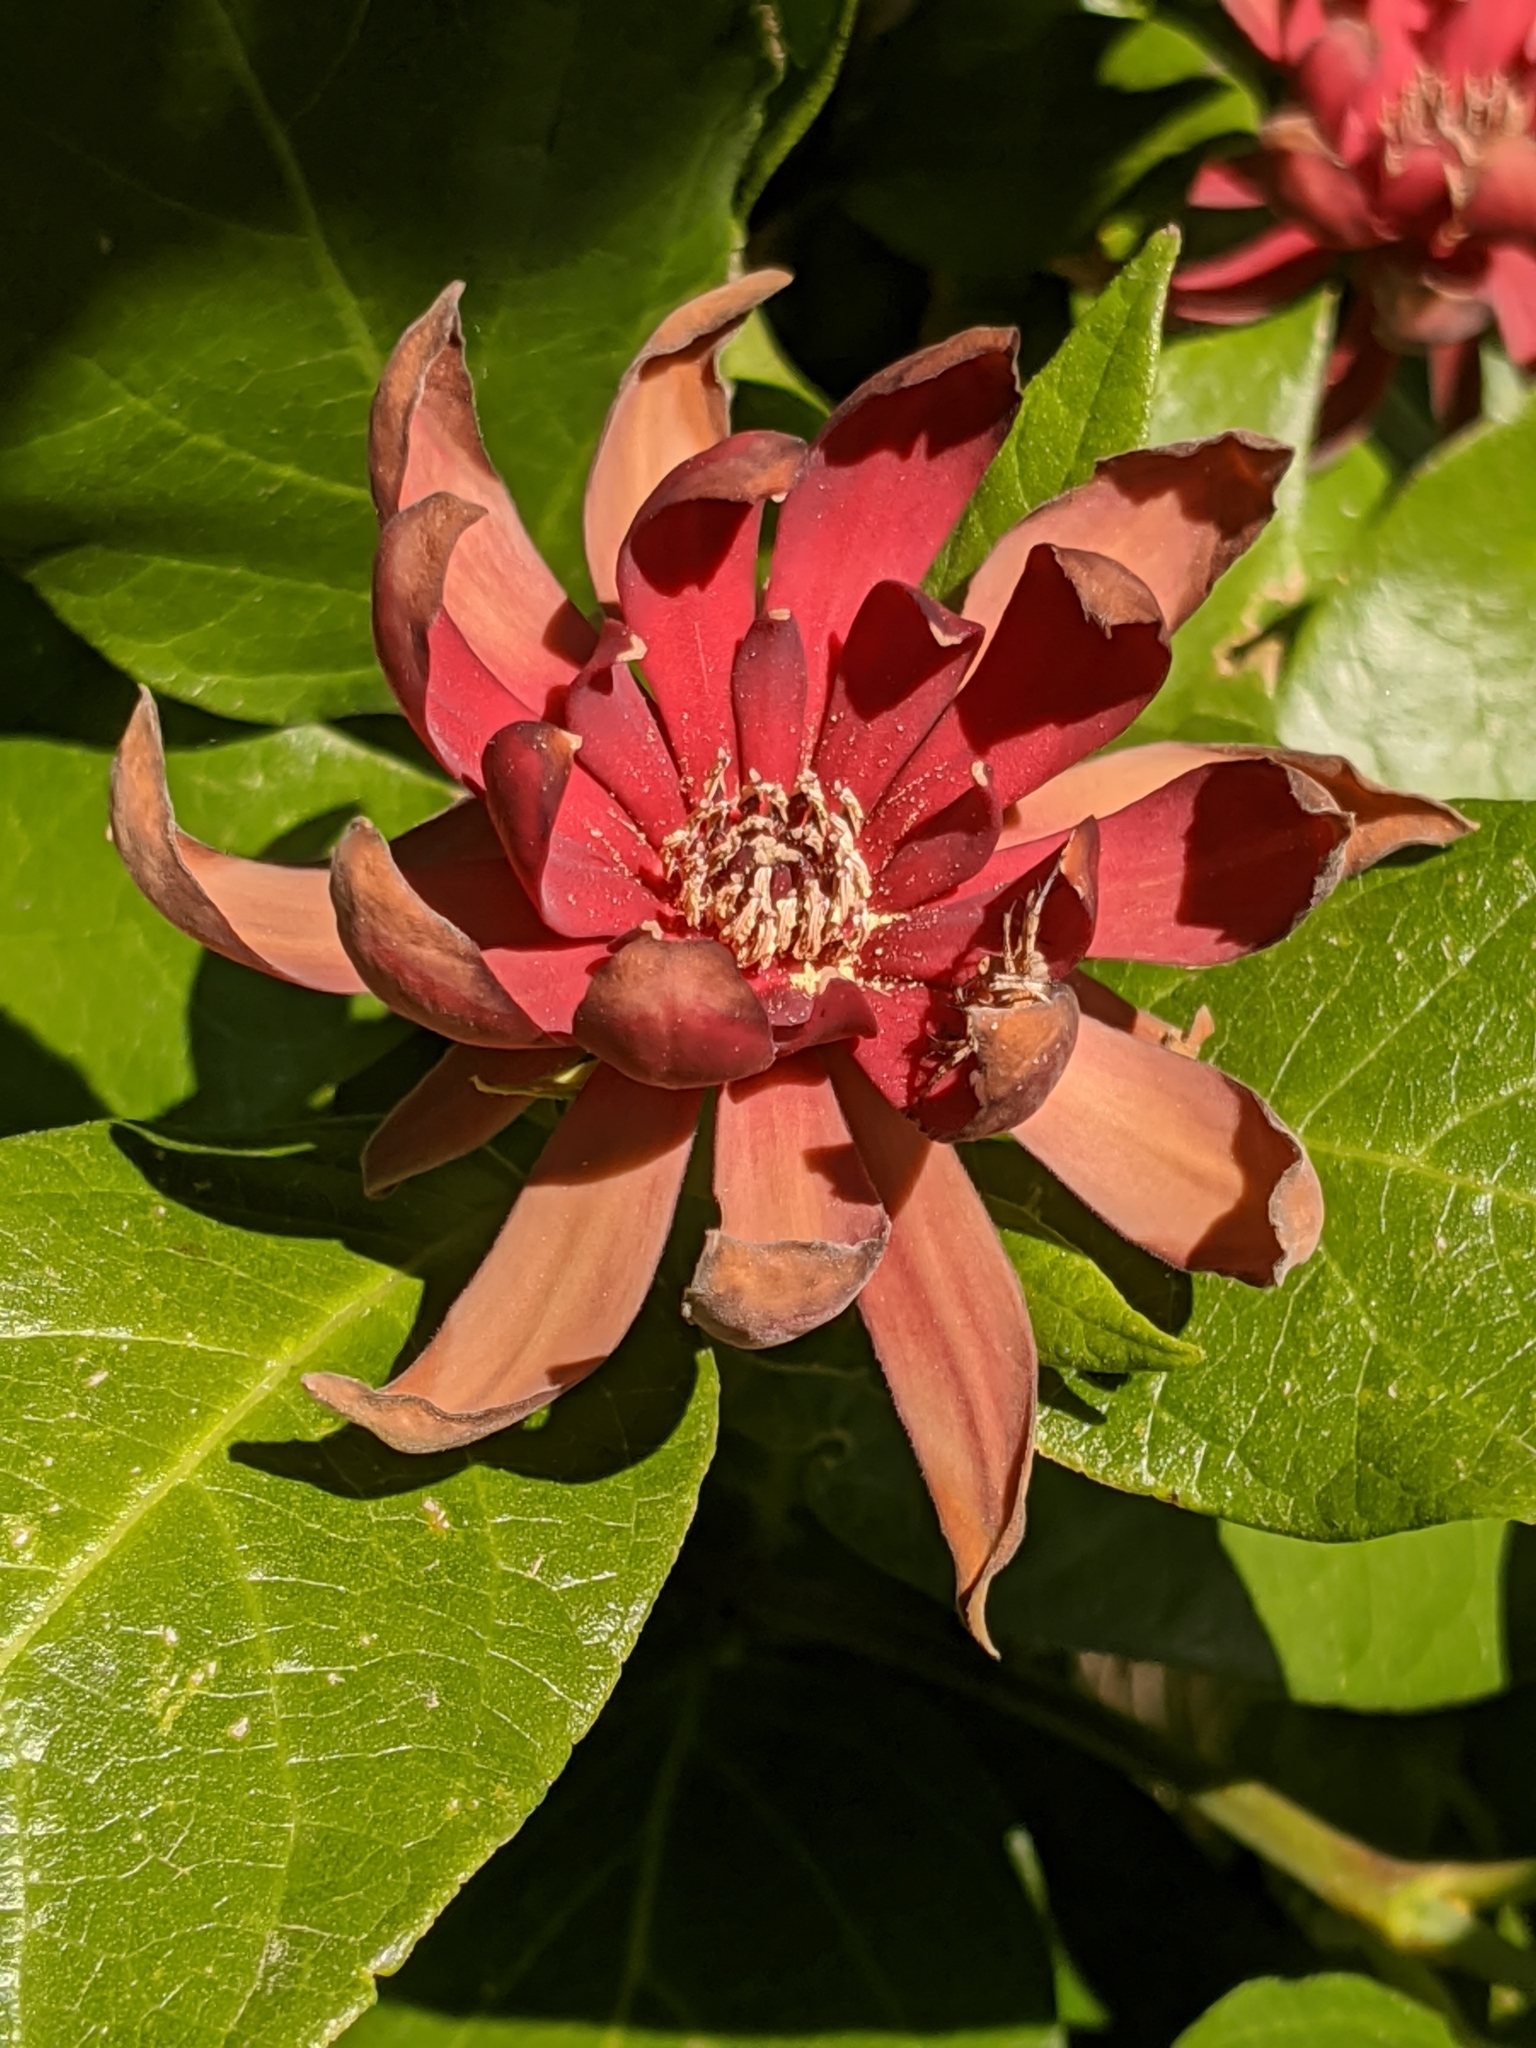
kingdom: Plantae
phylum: Tracheophyta
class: Magnoliopsida
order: Laurales
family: Calycanthaceae
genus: Calycanthus
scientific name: Calycanthus occidentalis
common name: California spicebush
